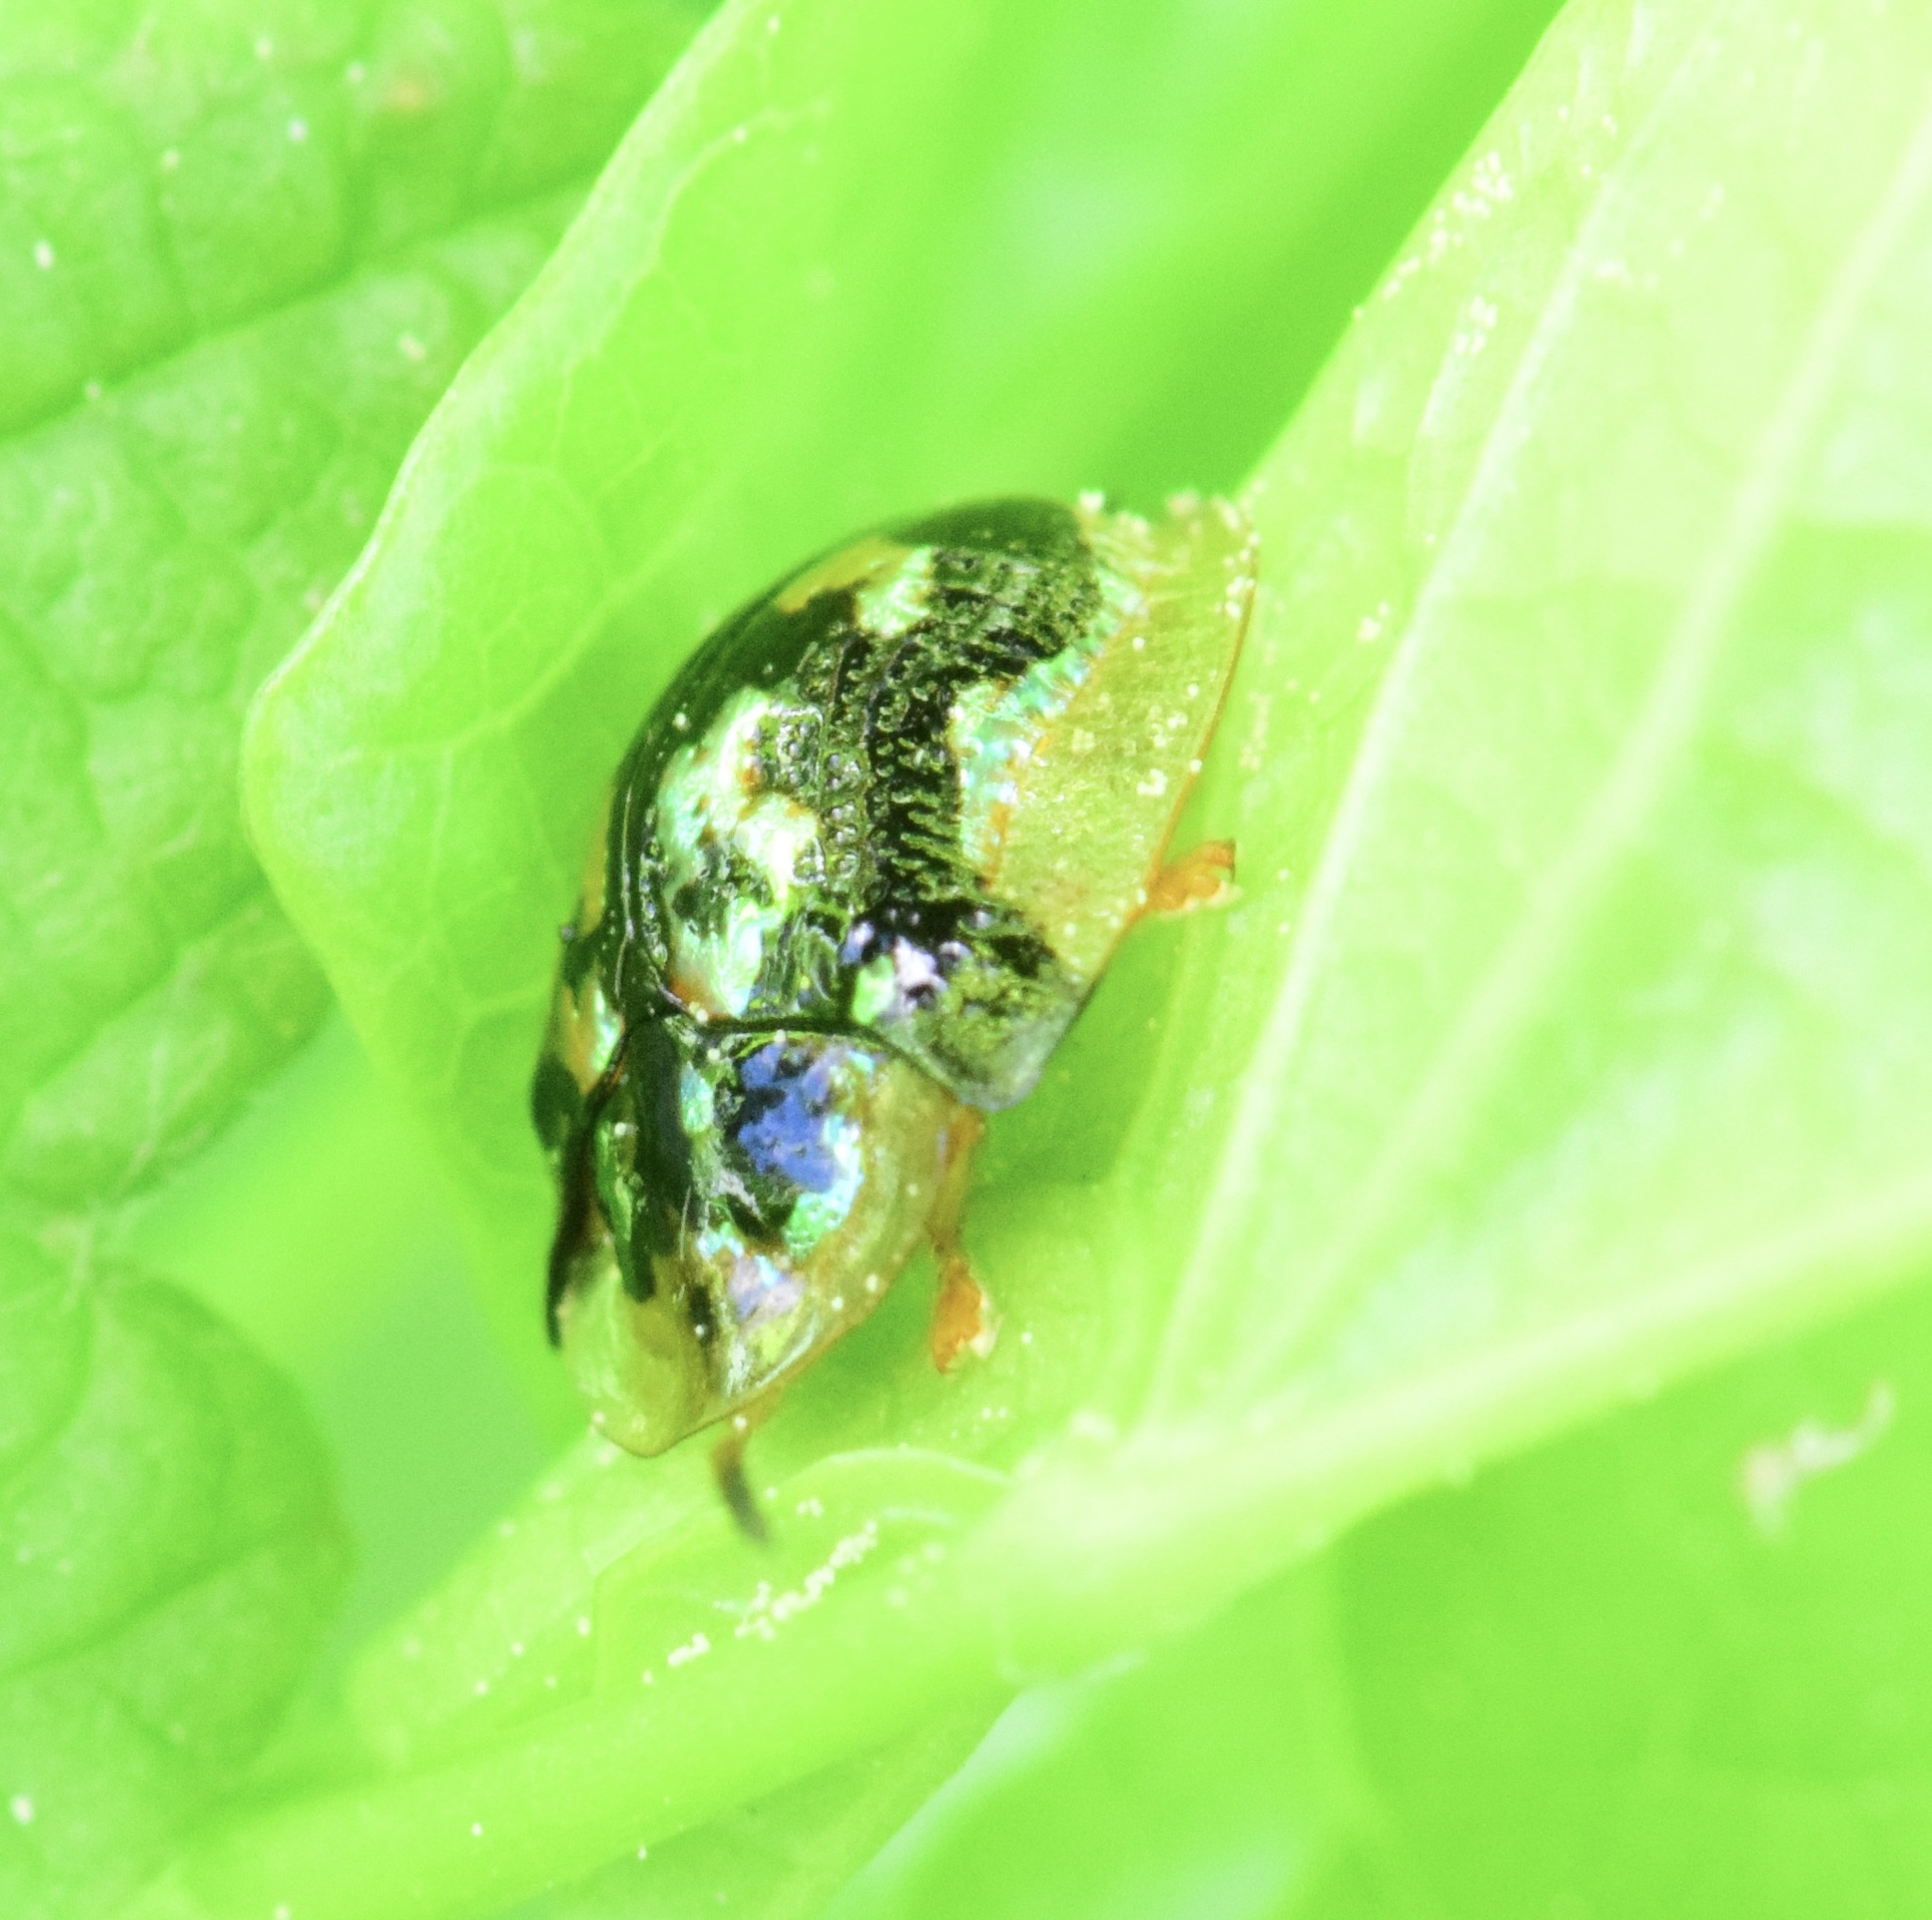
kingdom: Animalia
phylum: Arthropoda
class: Insecta
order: Coleoptera
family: Chrysomelidae
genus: Deloyala
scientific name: Deloyala guttata
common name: Mottled tortoise beetle
